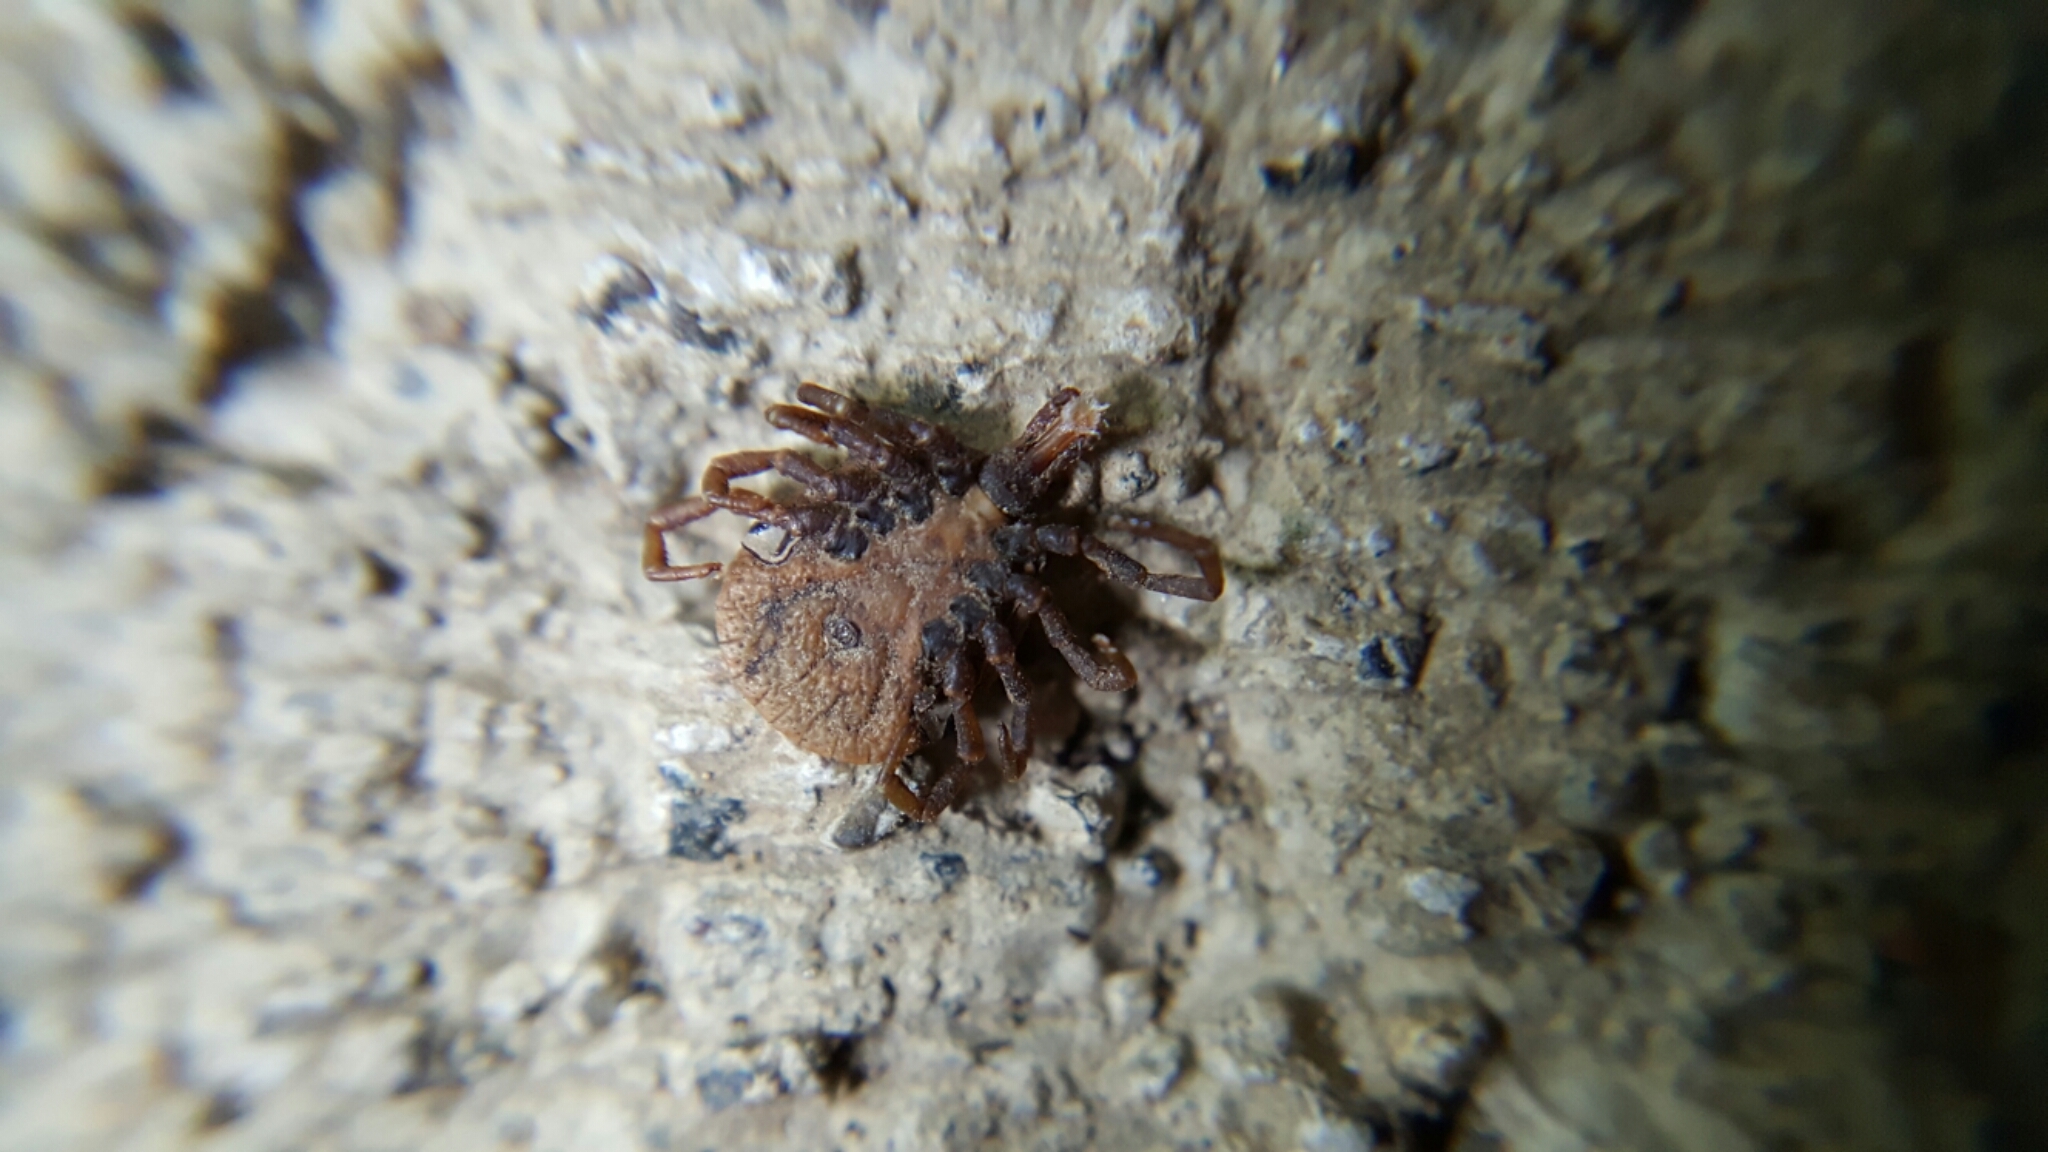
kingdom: Animalia
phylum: Arthropoda
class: Arachnida
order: Ixodida
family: Ixodidae
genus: Amblyomma
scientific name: Amblyomma sabanerae
